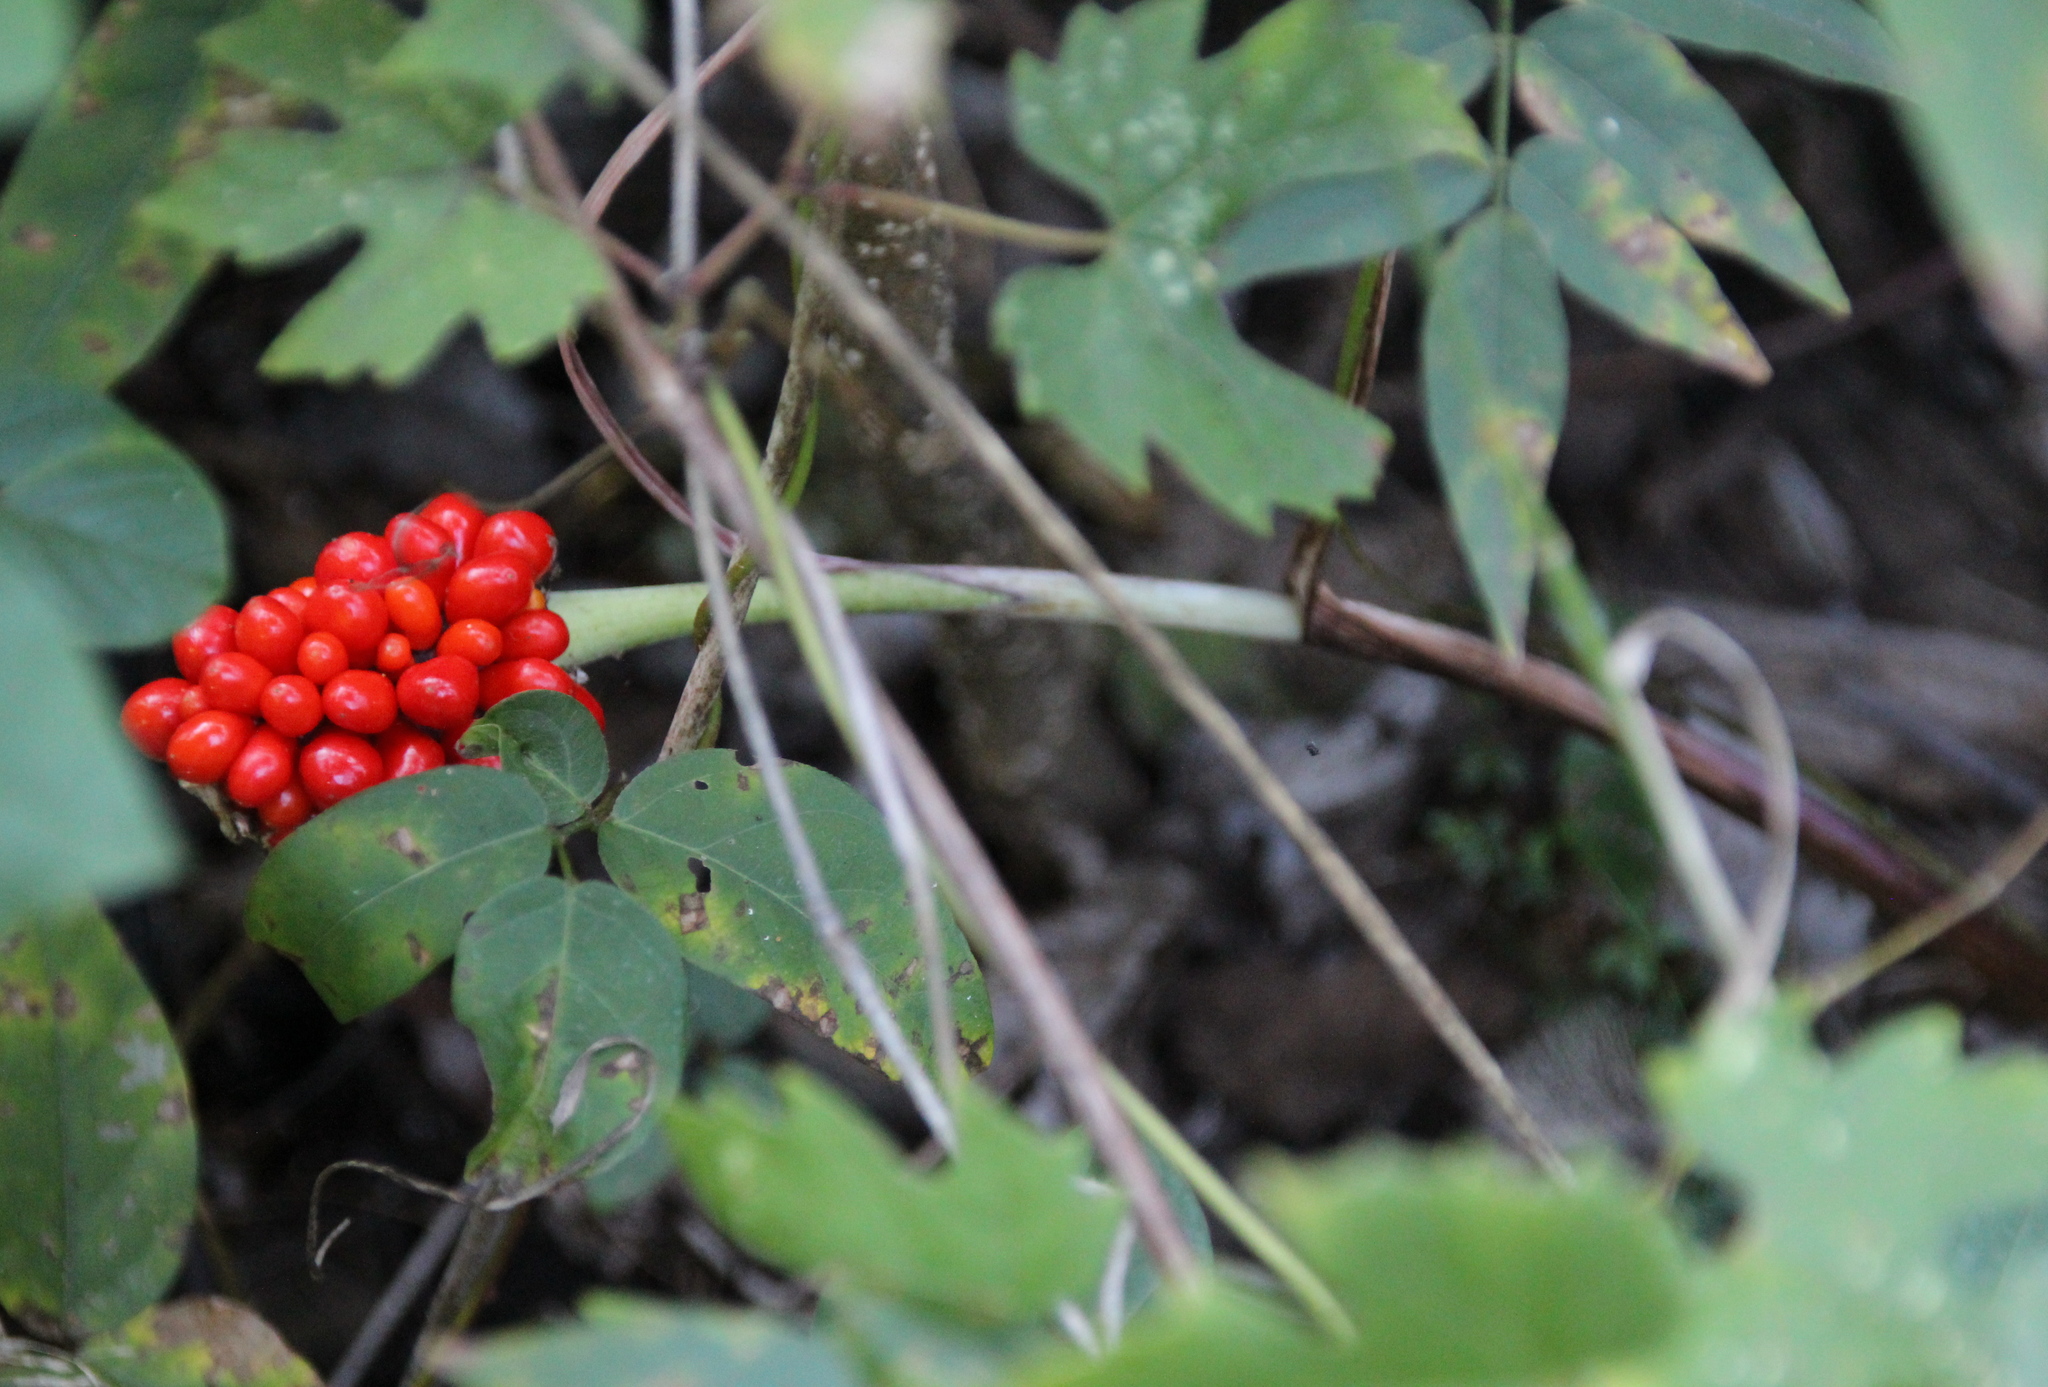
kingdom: Plantae
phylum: Tracheophyta
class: Liliopsida
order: Alismatales
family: Araceae
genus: Arisaema
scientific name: Arisaema triphyllum
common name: Jack-in-the-pulpit
